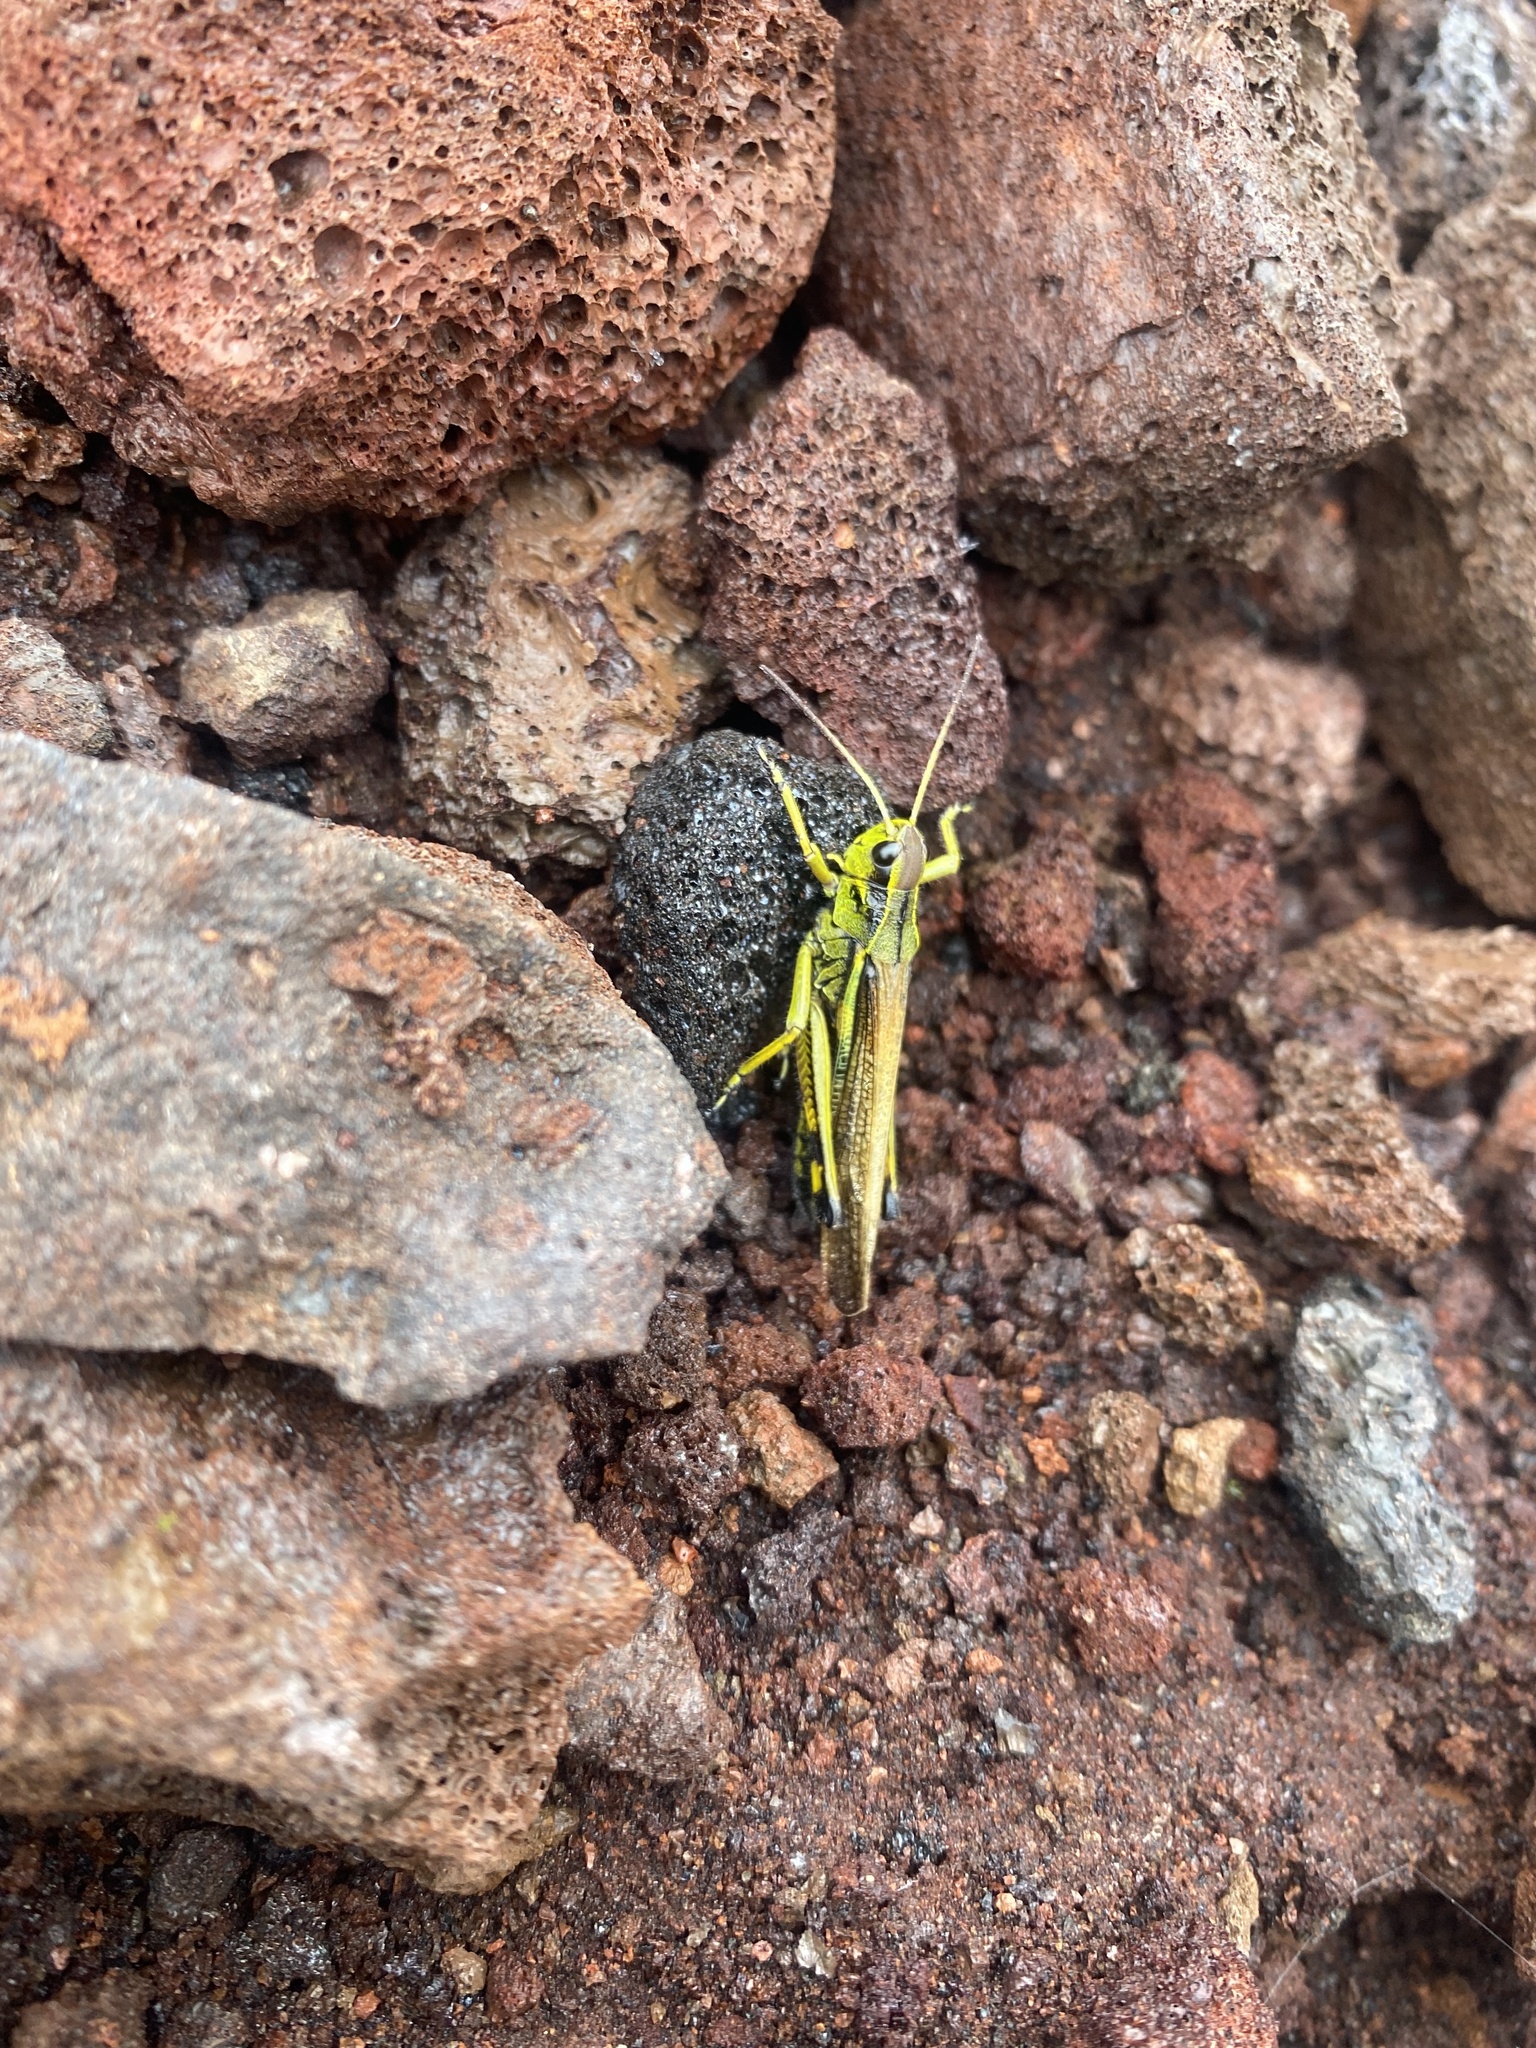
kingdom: Animalia
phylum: Arthropoda
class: Insecta
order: Orthoptera
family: Acrididae
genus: Stethophyma
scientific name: Stethophyma grossum
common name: Large marsh grasshopper
